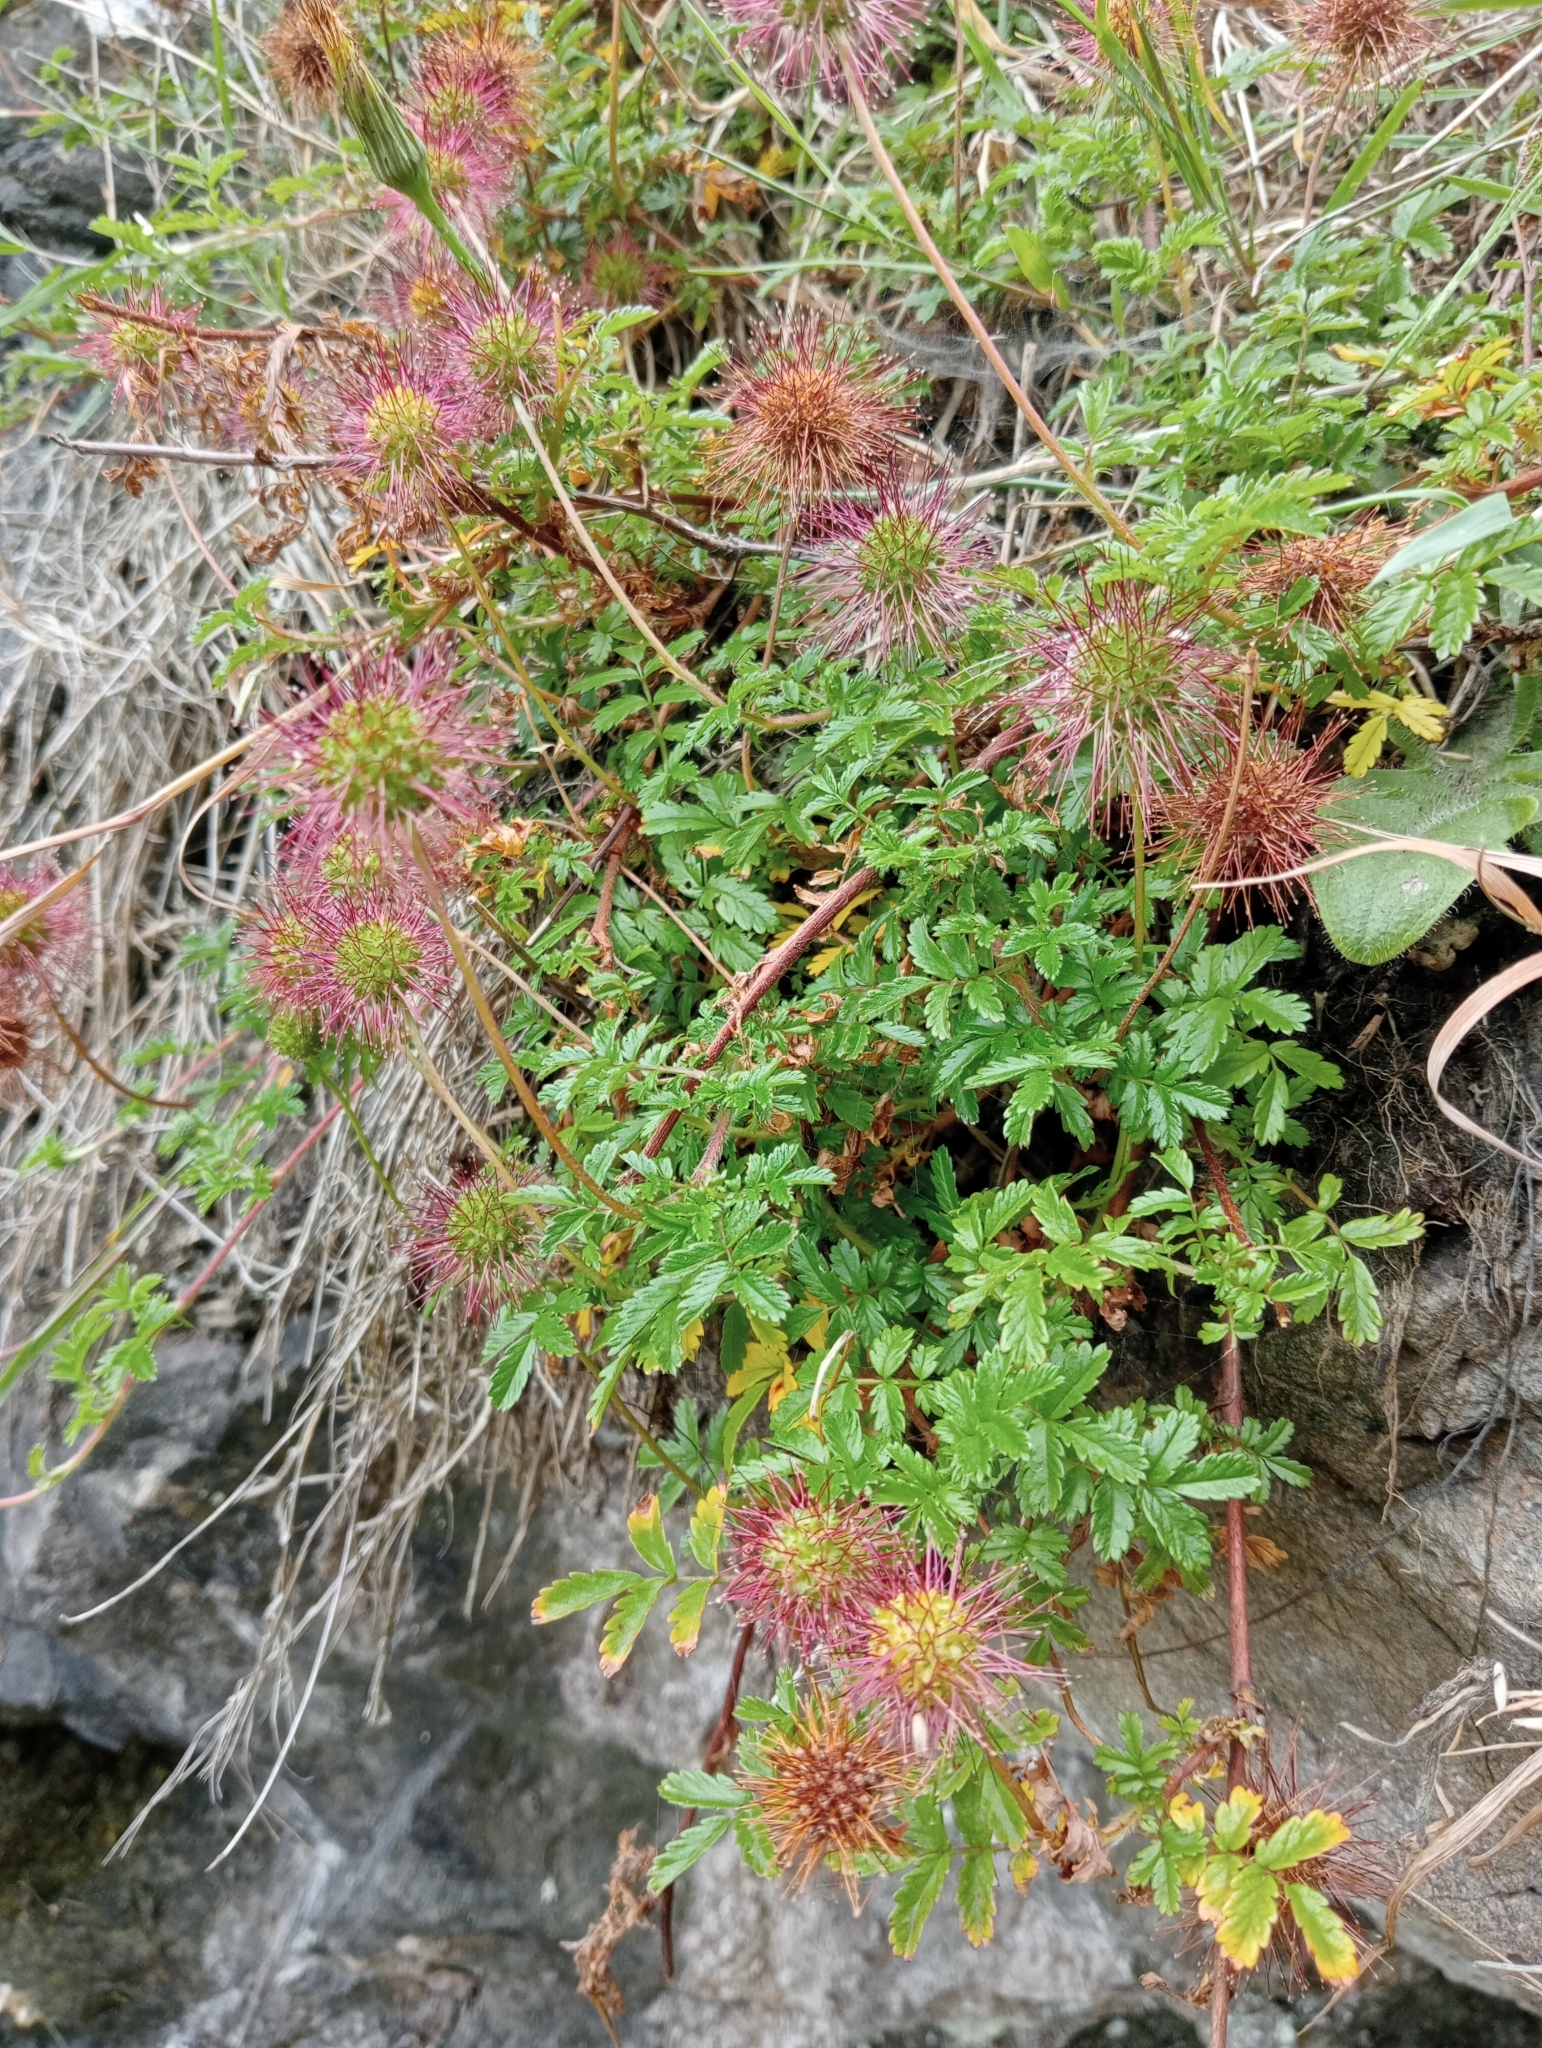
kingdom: Plantae
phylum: Tracheophyta
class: Magnoliopsida
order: Rosales
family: Rosaceae
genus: Acaena
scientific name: Acaena novae-zelandiae
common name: Pirri-pirri-bur
